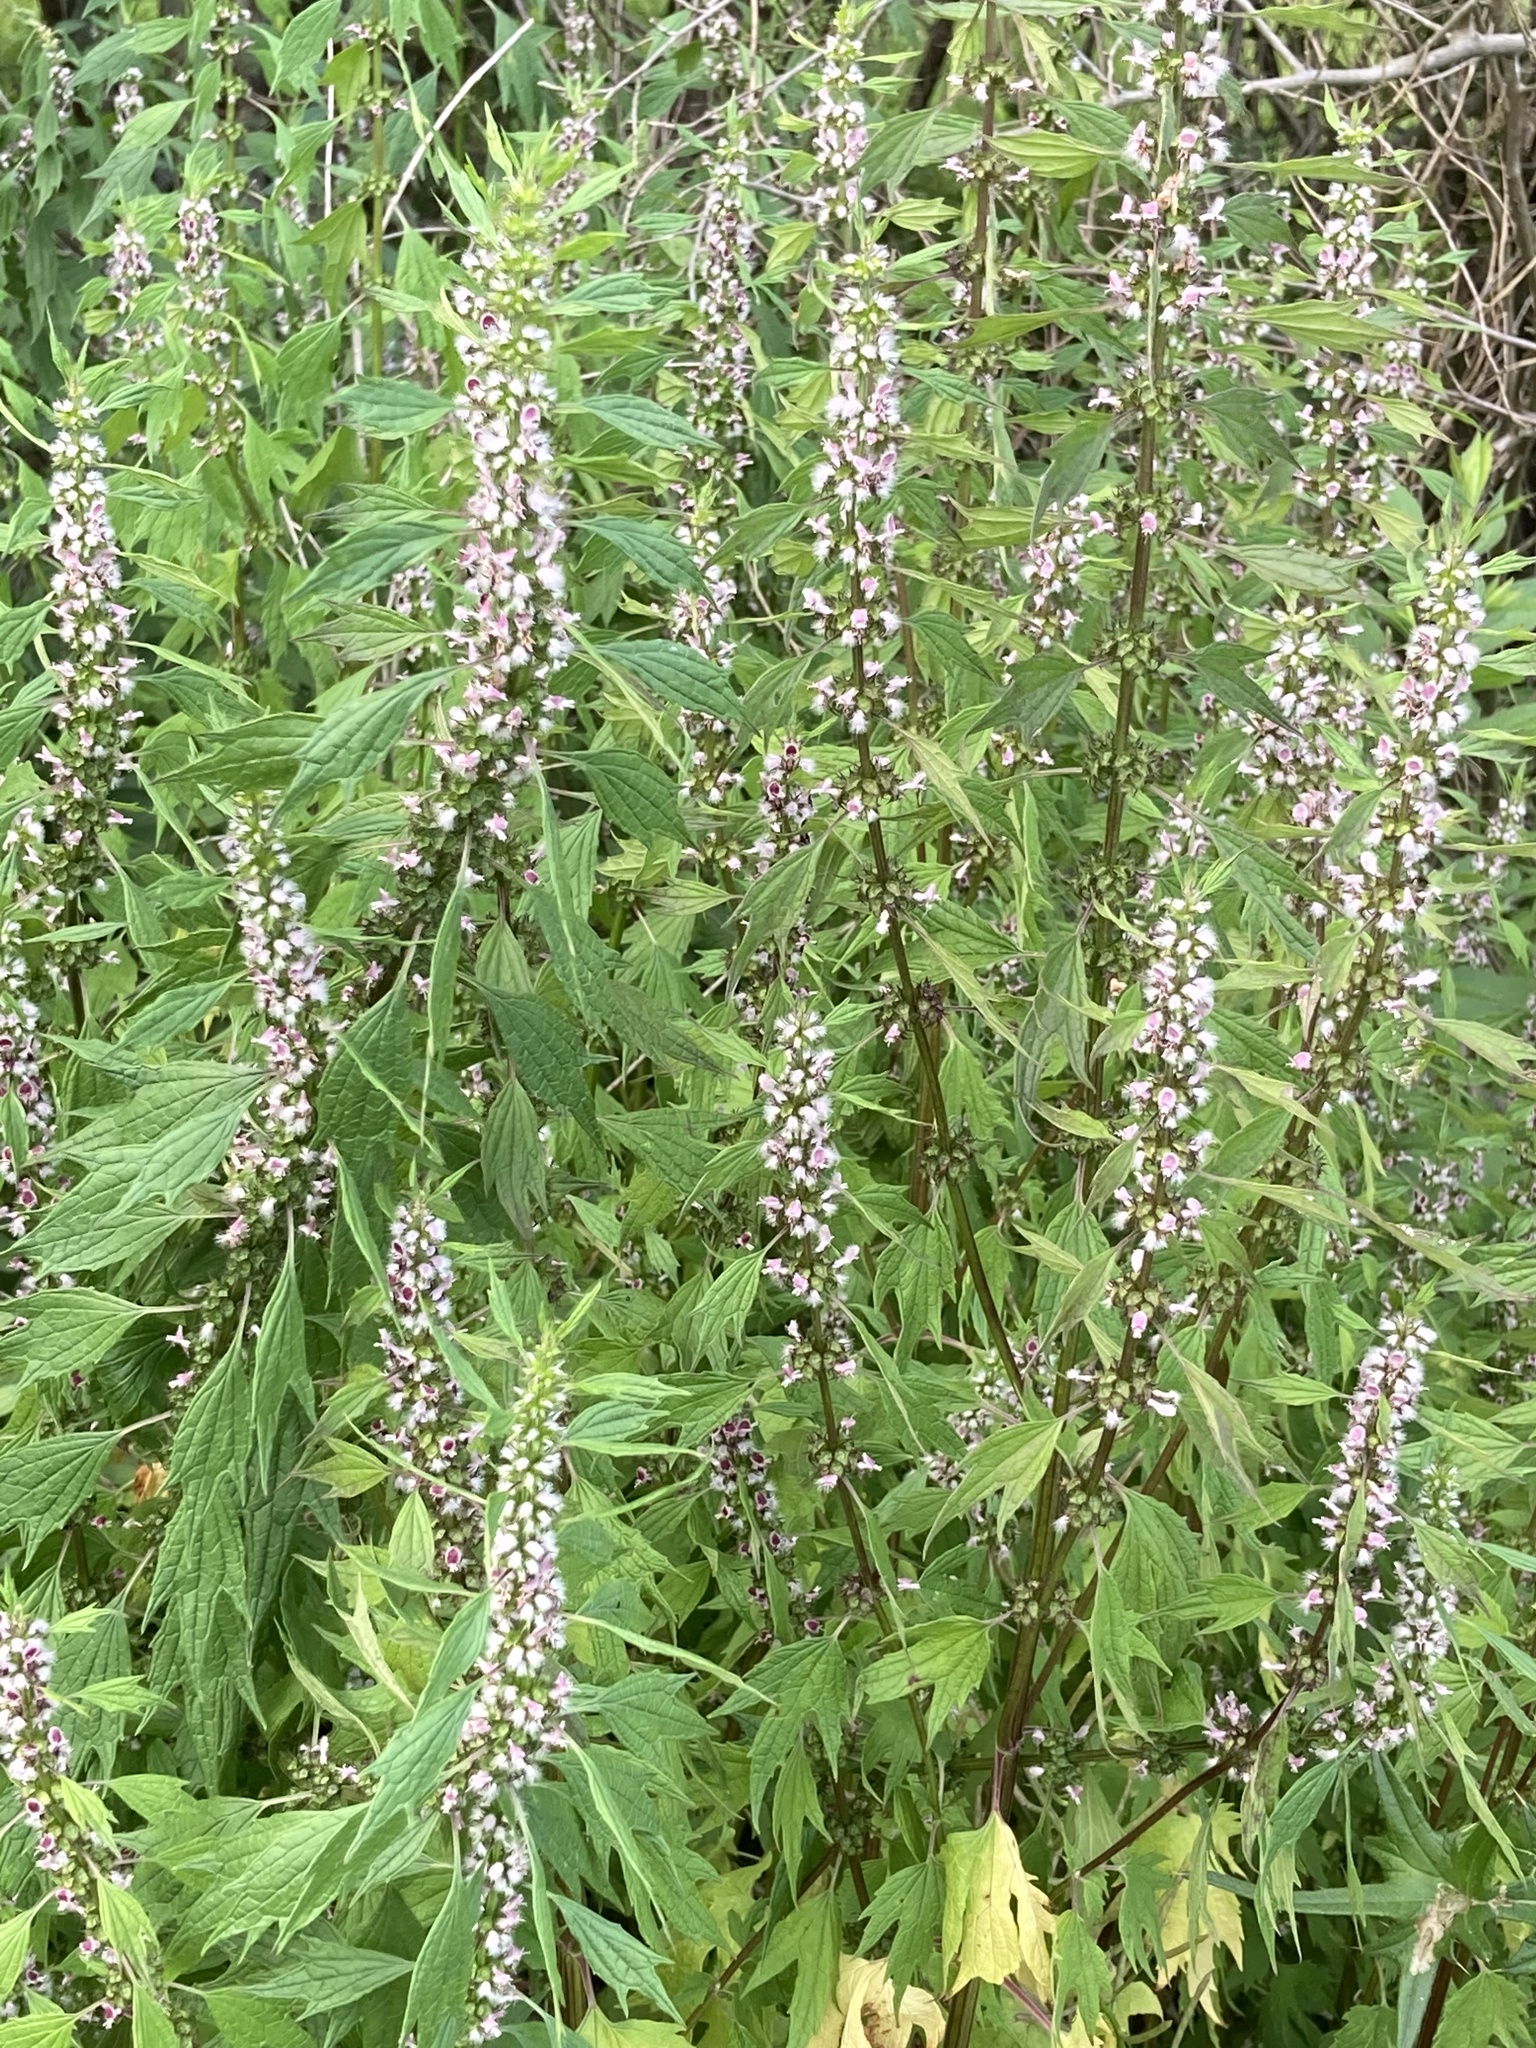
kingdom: Plantae
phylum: Tracheophyta
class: Magnoliopsida
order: Lamiales
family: Lamiaceae
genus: Leonurus
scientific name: Leonurus cardiaca
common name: Motherwort
